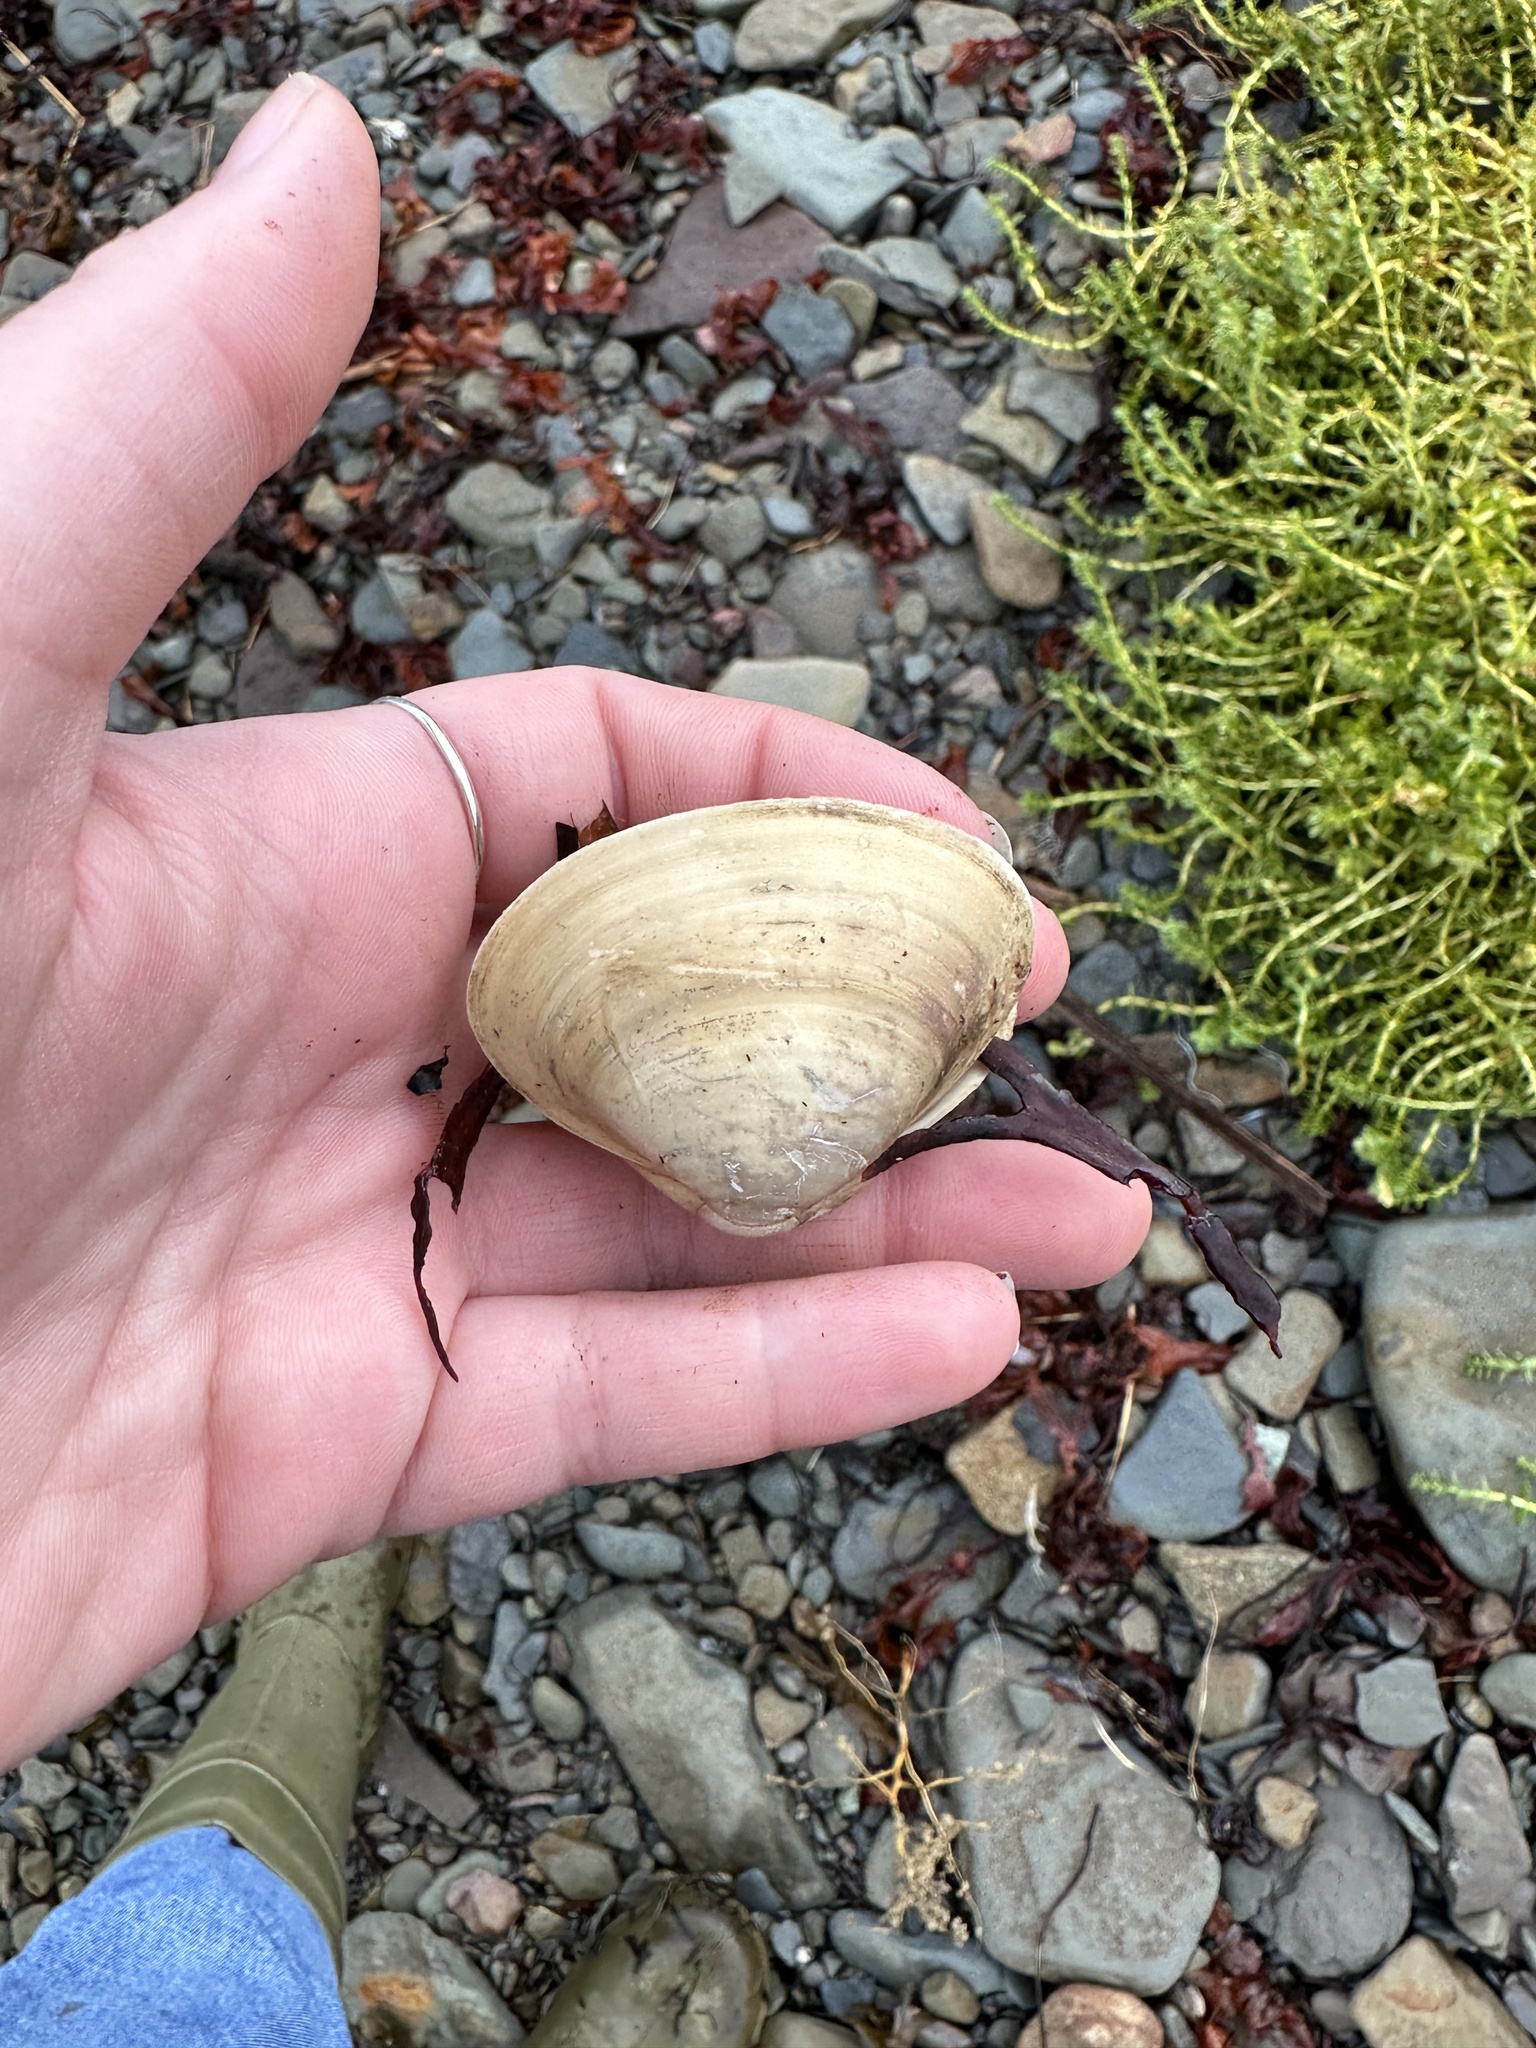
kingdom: Animalia
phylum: Mollusca
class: Bivalvia
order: Venerida
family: Mactridae
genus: Spisula
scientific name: Spisula solidissima
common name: Atlantic surf clam
